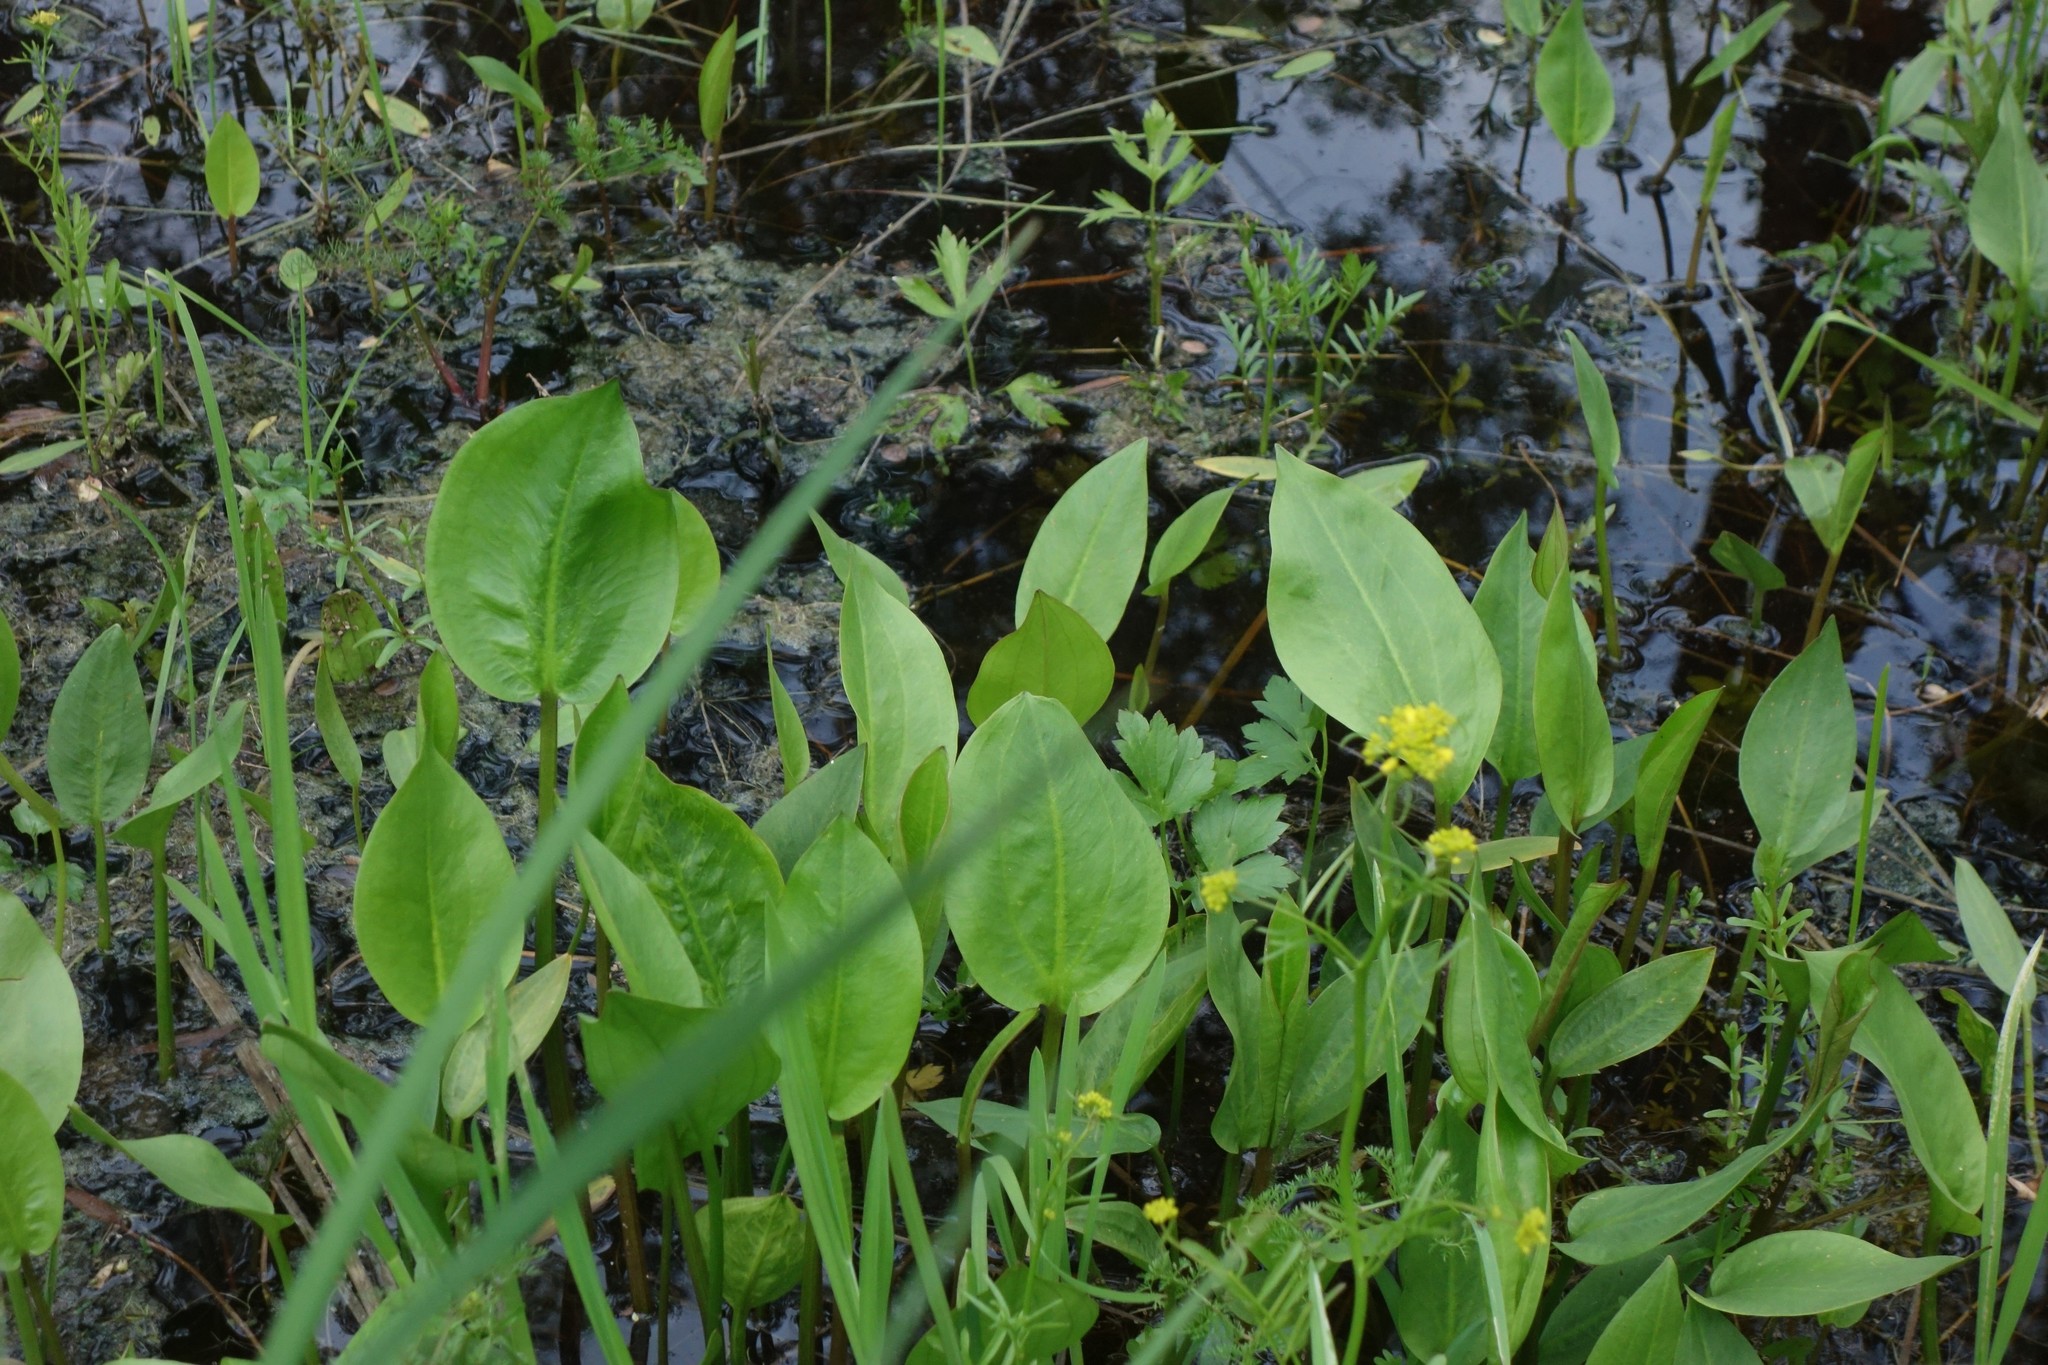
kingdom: Plantae
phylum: Tracheophyta
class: Liliopsida
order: Alismatales
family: Alismataceae
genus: Alisma
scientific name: Alisma plantago-aquatica
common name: Water-plantain
